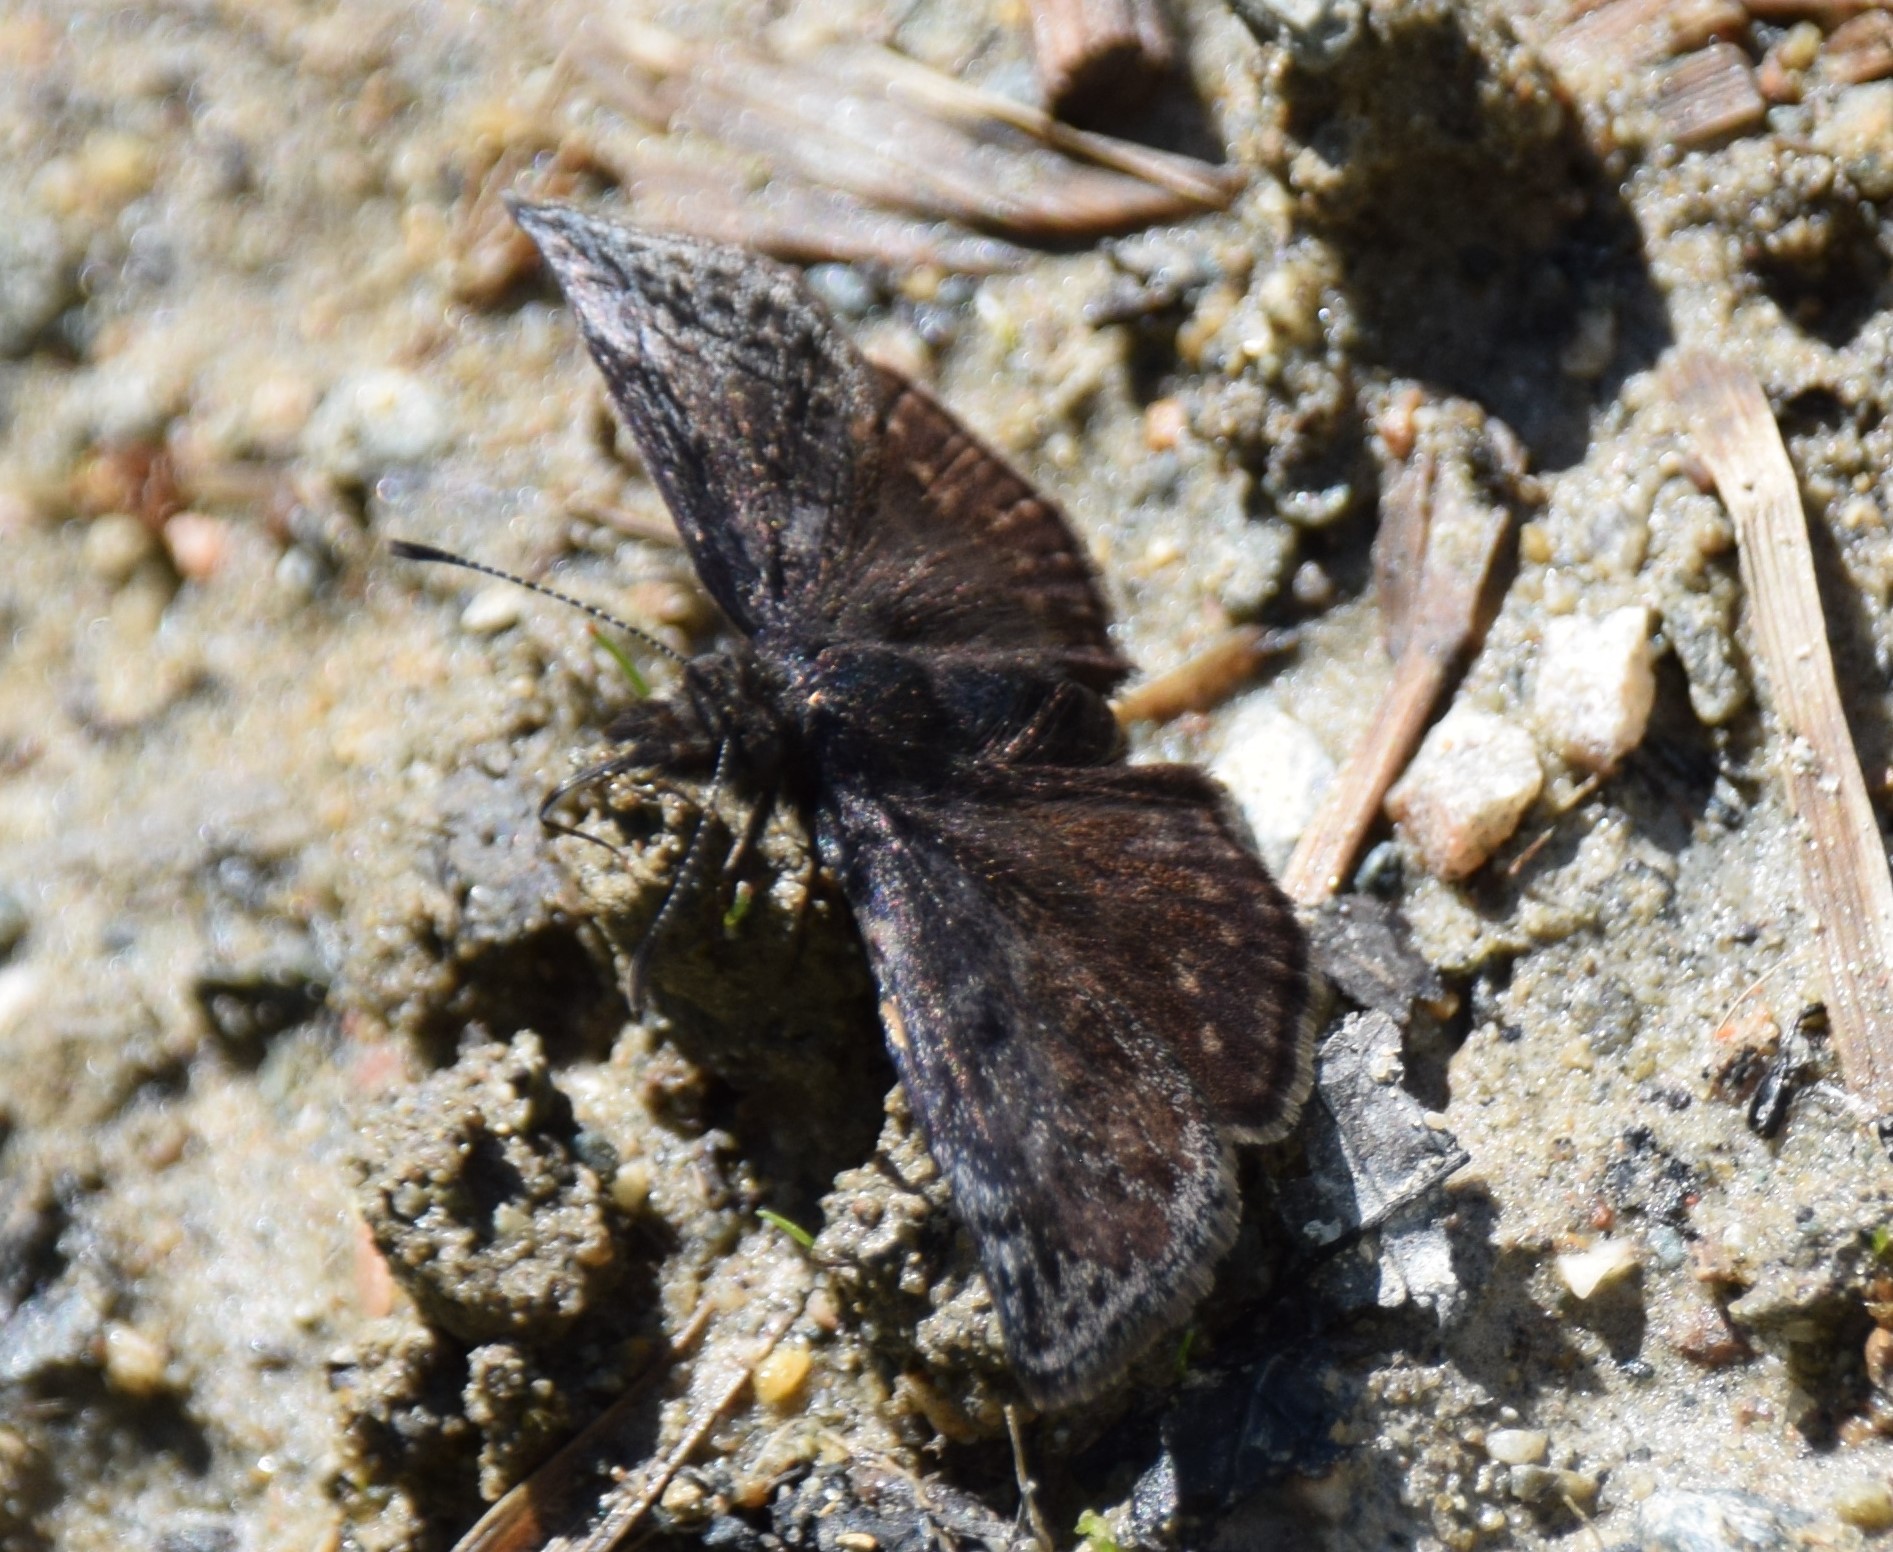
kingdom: Animalia
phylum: Arthropoda
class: Insecta
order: Lepidoptera
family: Hesperiidae
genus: Erynnis
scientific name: Erynnis icelus
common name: Dreamy duskywing
